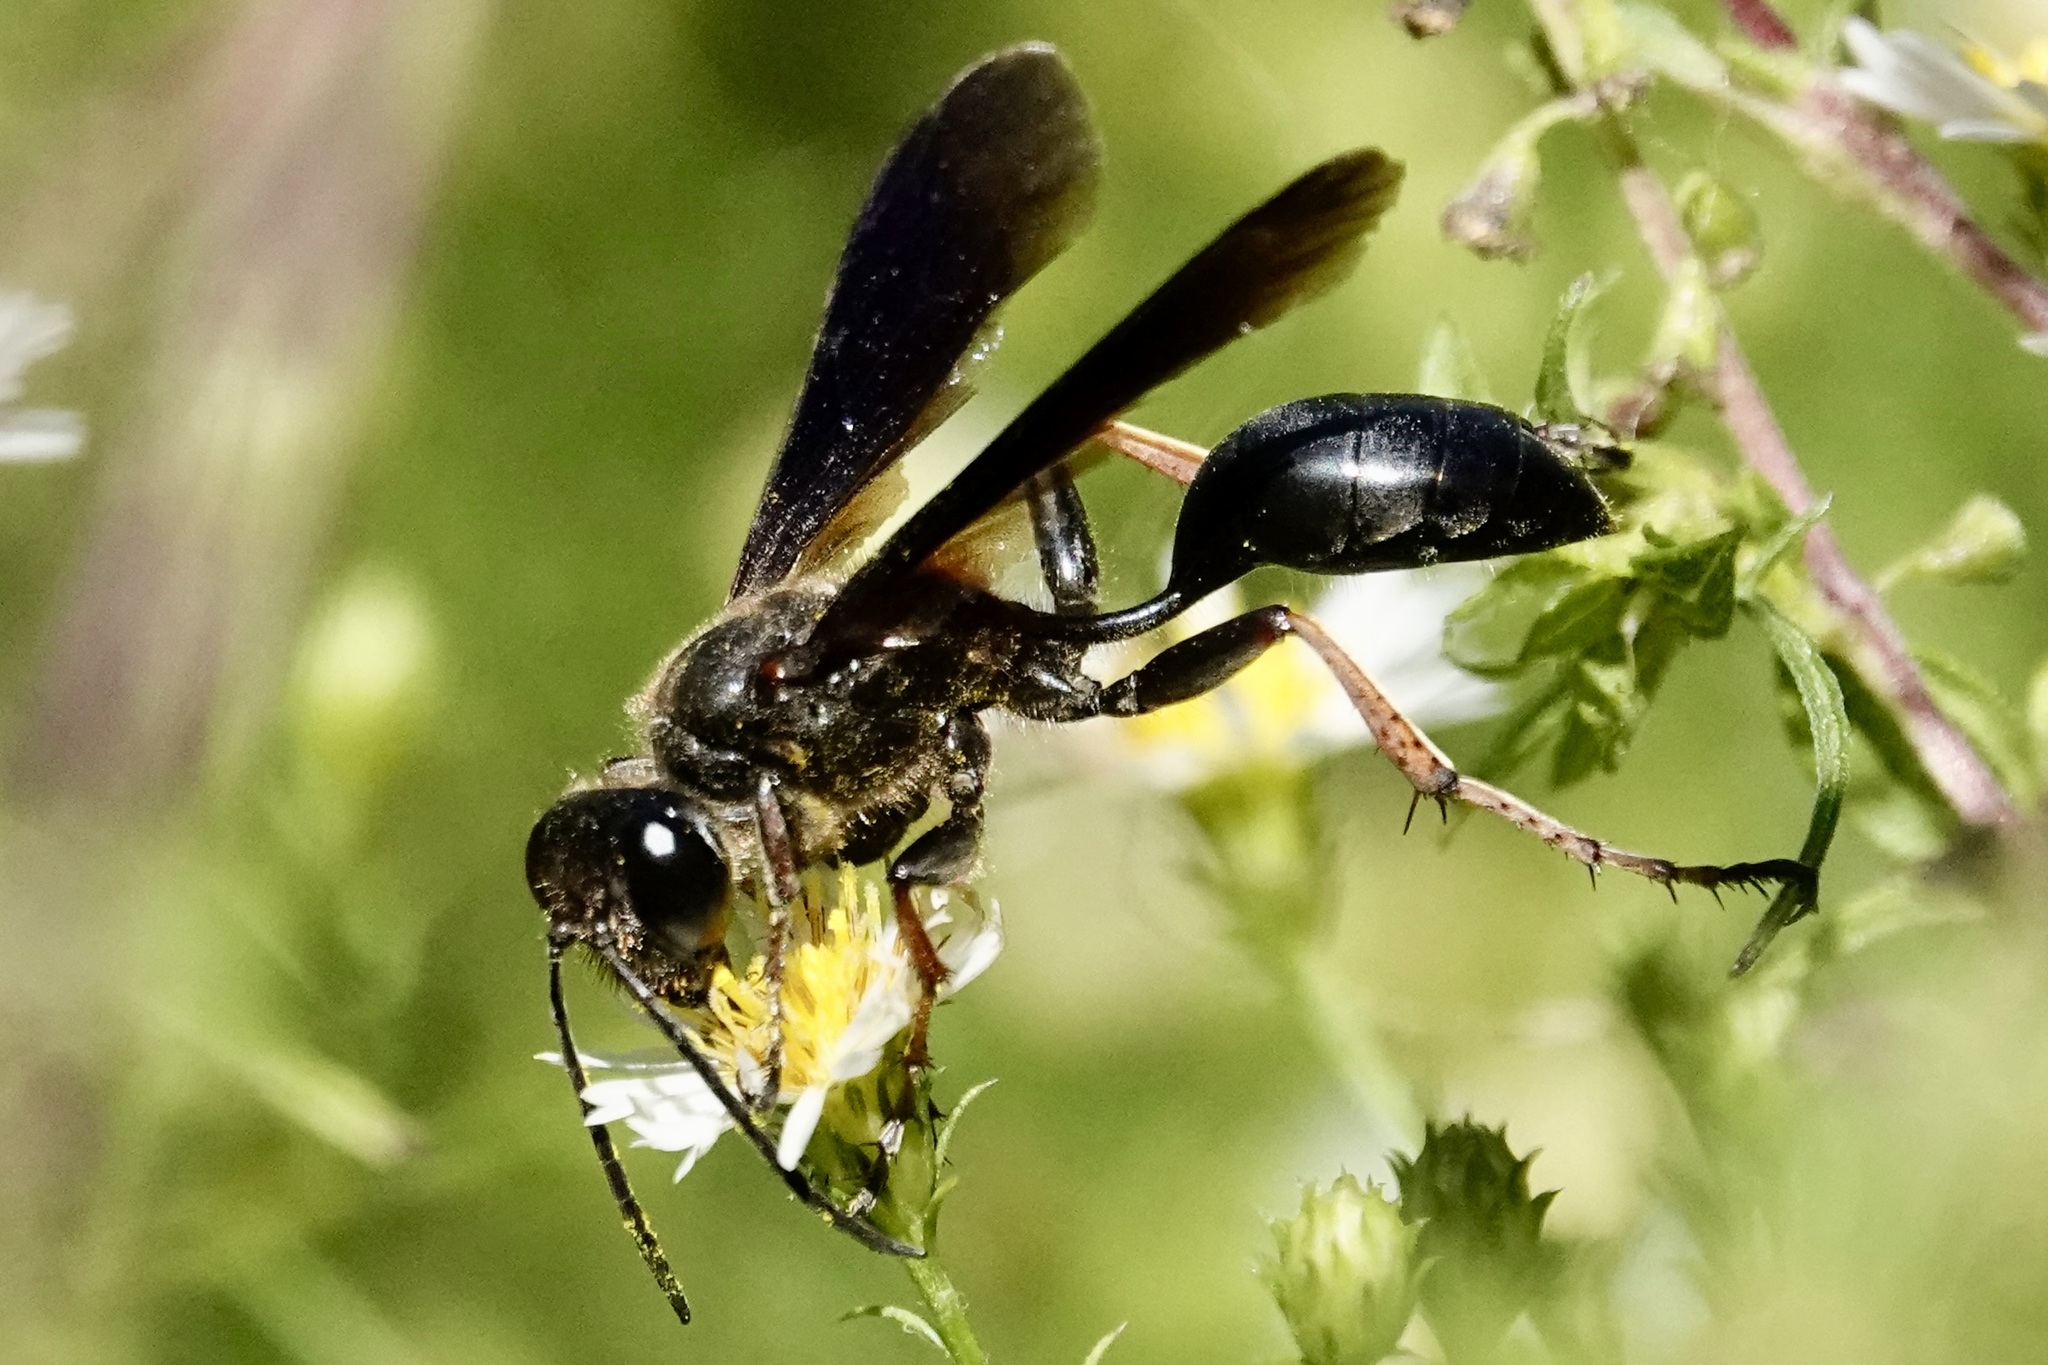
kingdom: Animalia
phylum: Arthropoda
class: Insecta
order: Hymenoptera
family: Sphecidae
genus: Isodontia
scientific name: Isodontia auripes
